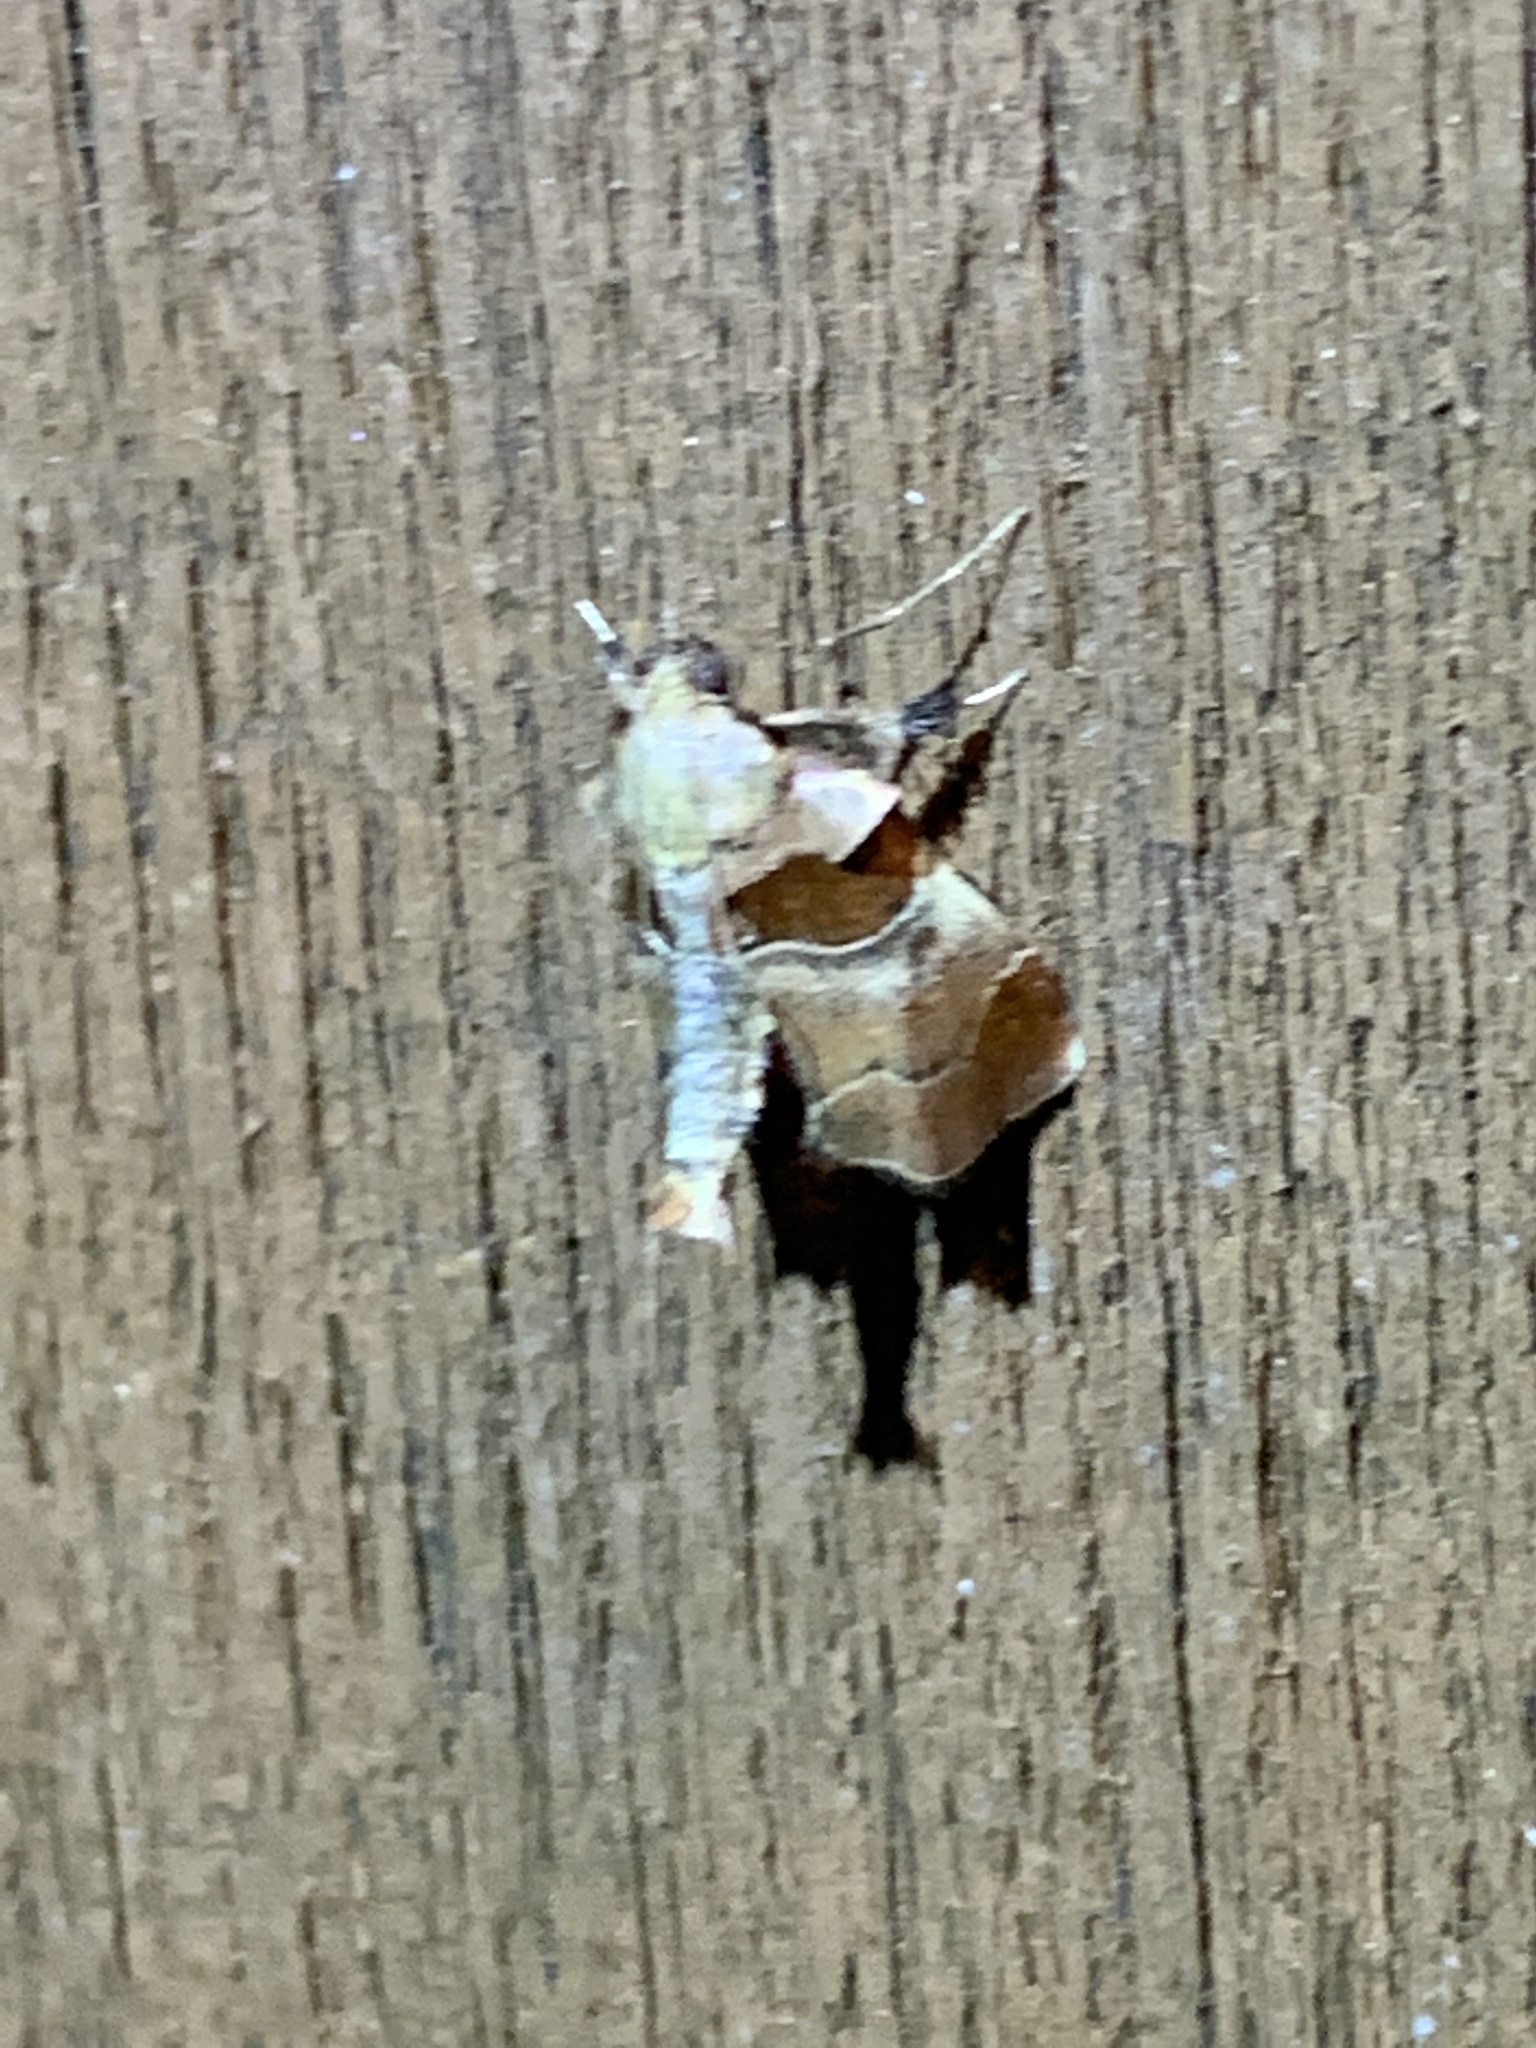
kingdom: Animalia
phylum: Arthropoda
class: Insecta
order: Lepidoptera
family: Pyralidae
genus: Tosale
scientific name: Tosale oviplagalis
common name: Dimorphic tosale moth
